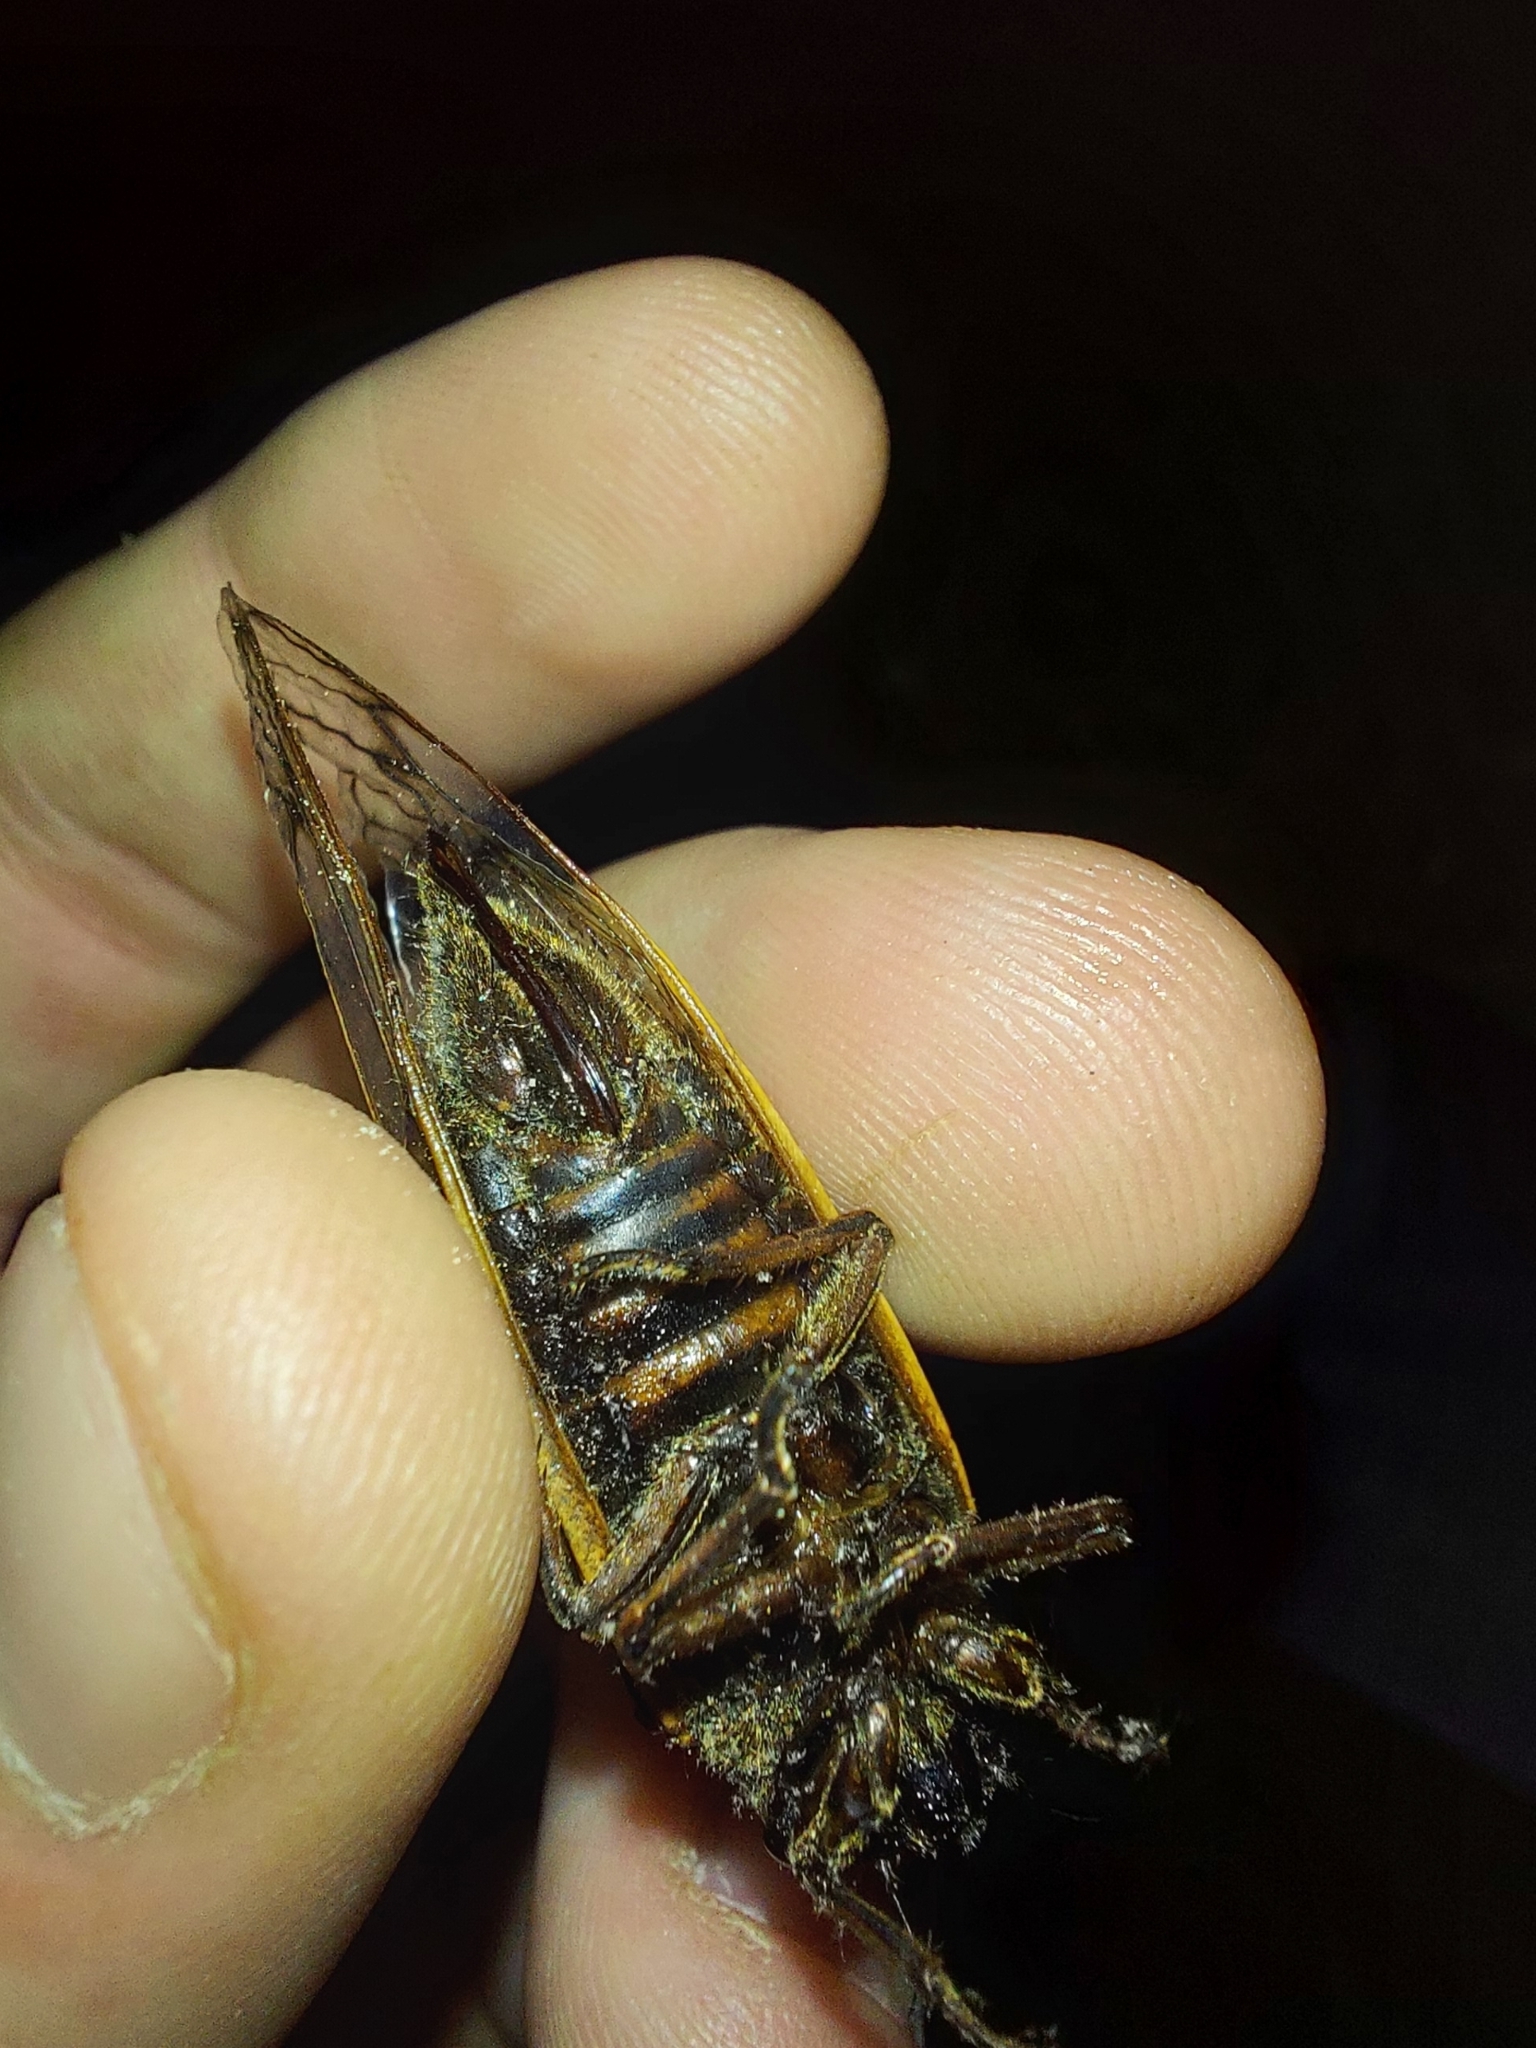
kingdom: Animalia
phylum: Arthropoda
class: Insecta
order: Hemiptera
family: Cicadidae
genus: Magicicada
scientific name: Magicicada septendecim
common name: Periodical cicada
